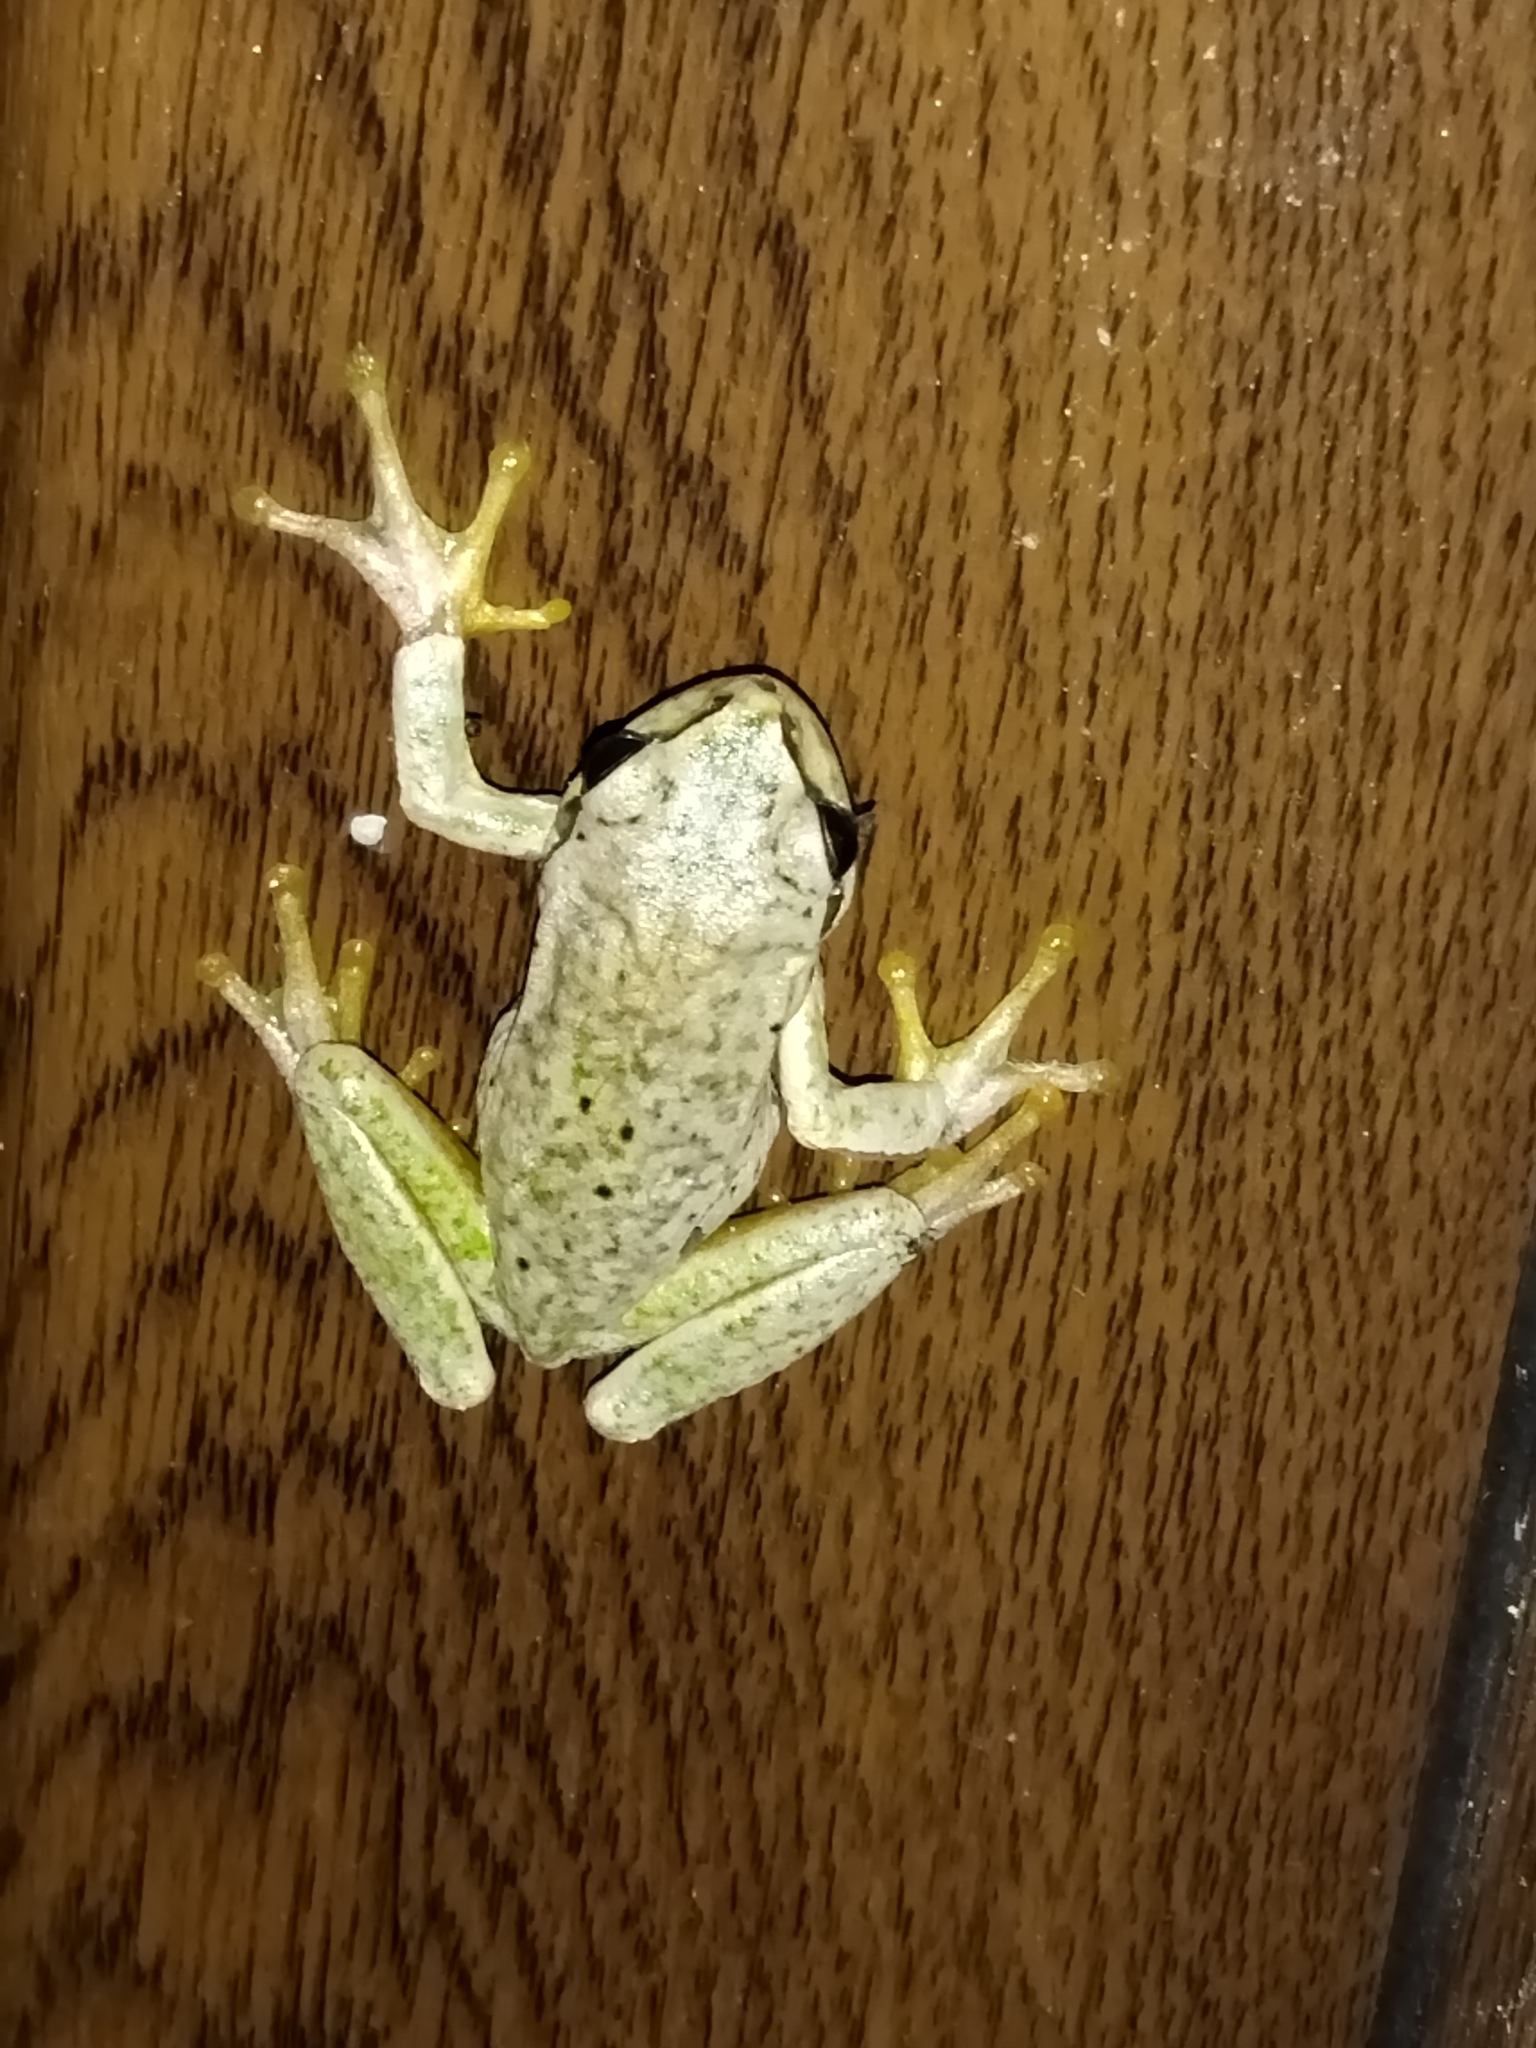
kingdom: Animalia
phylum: Chordata
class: Amphibia
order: Anura
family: Hylidae
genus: Hyla
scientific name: Hyla orientalis
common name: Caucasian treefrog
